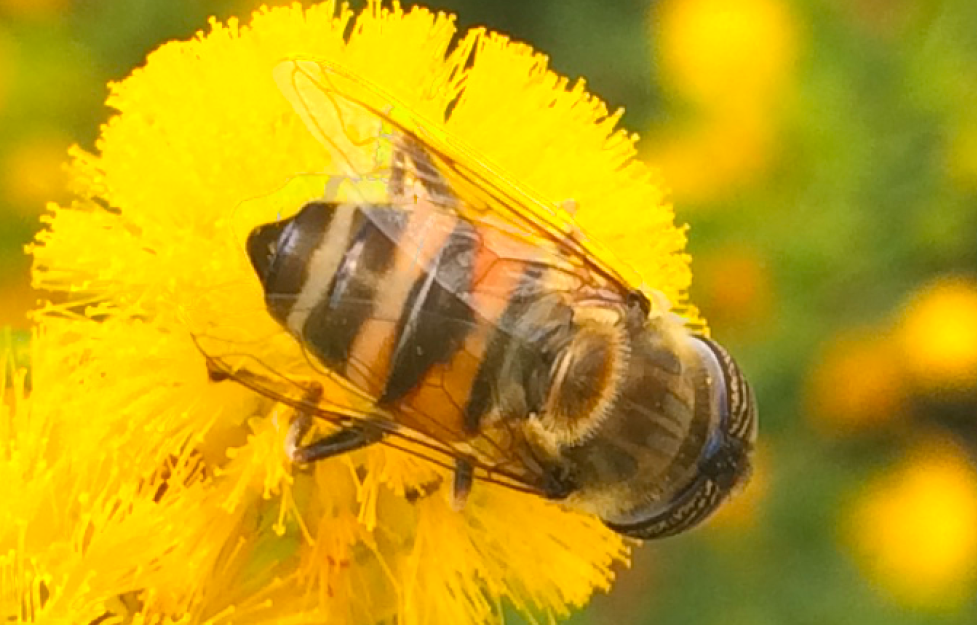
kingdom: Animalia
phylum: Arthropoda
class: Insecta
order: Diptera
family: Syrphidae
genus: Eristalinus
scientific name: Eristalinus taeniops
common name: Syrphid fly
